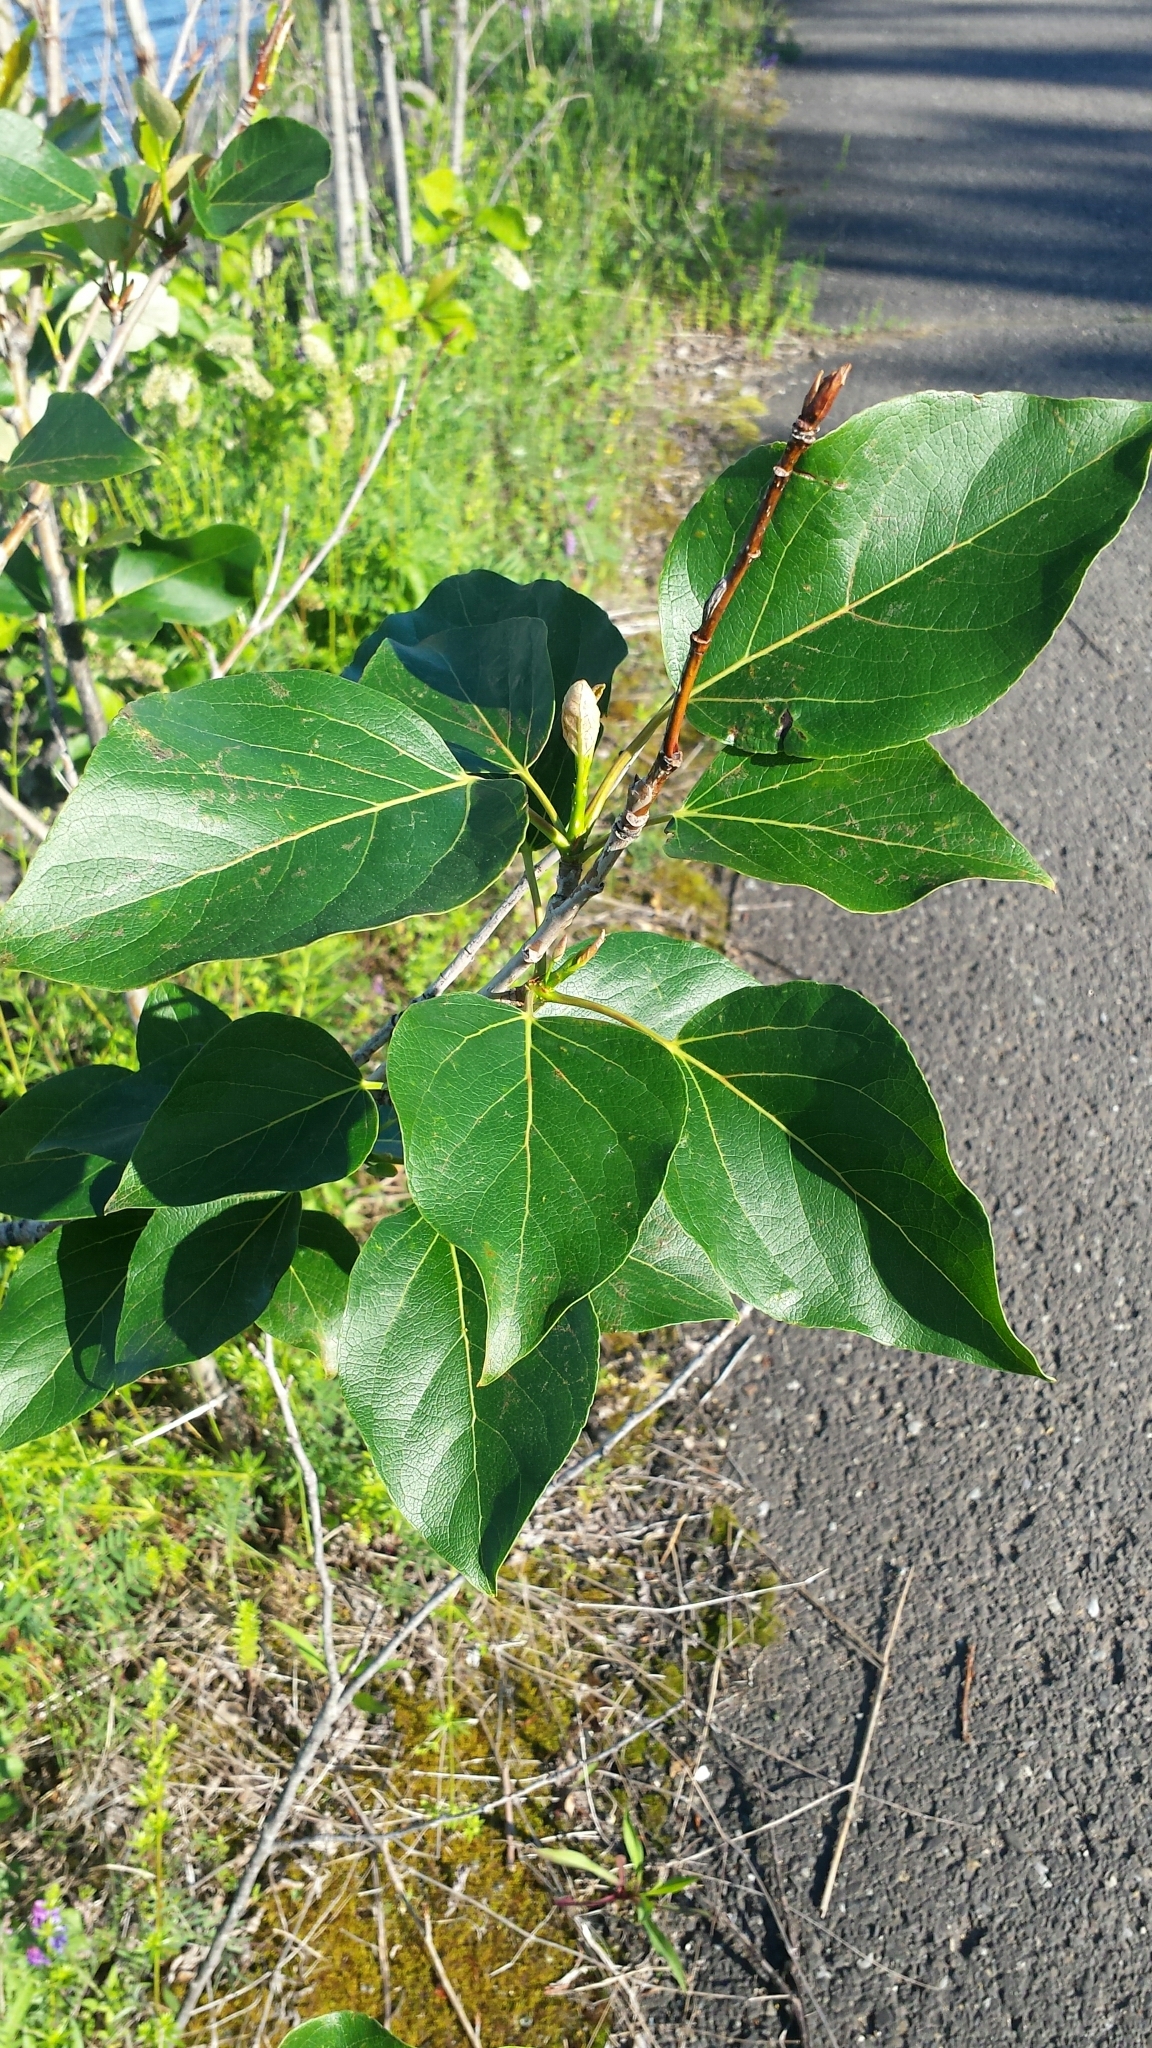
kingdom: Plantae
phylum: Tracheophyta
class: Magnoliopsida
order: Malpighiales
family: Salicaceae
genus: Populus
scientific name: Populus balsamifera
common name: Balsam poplar
